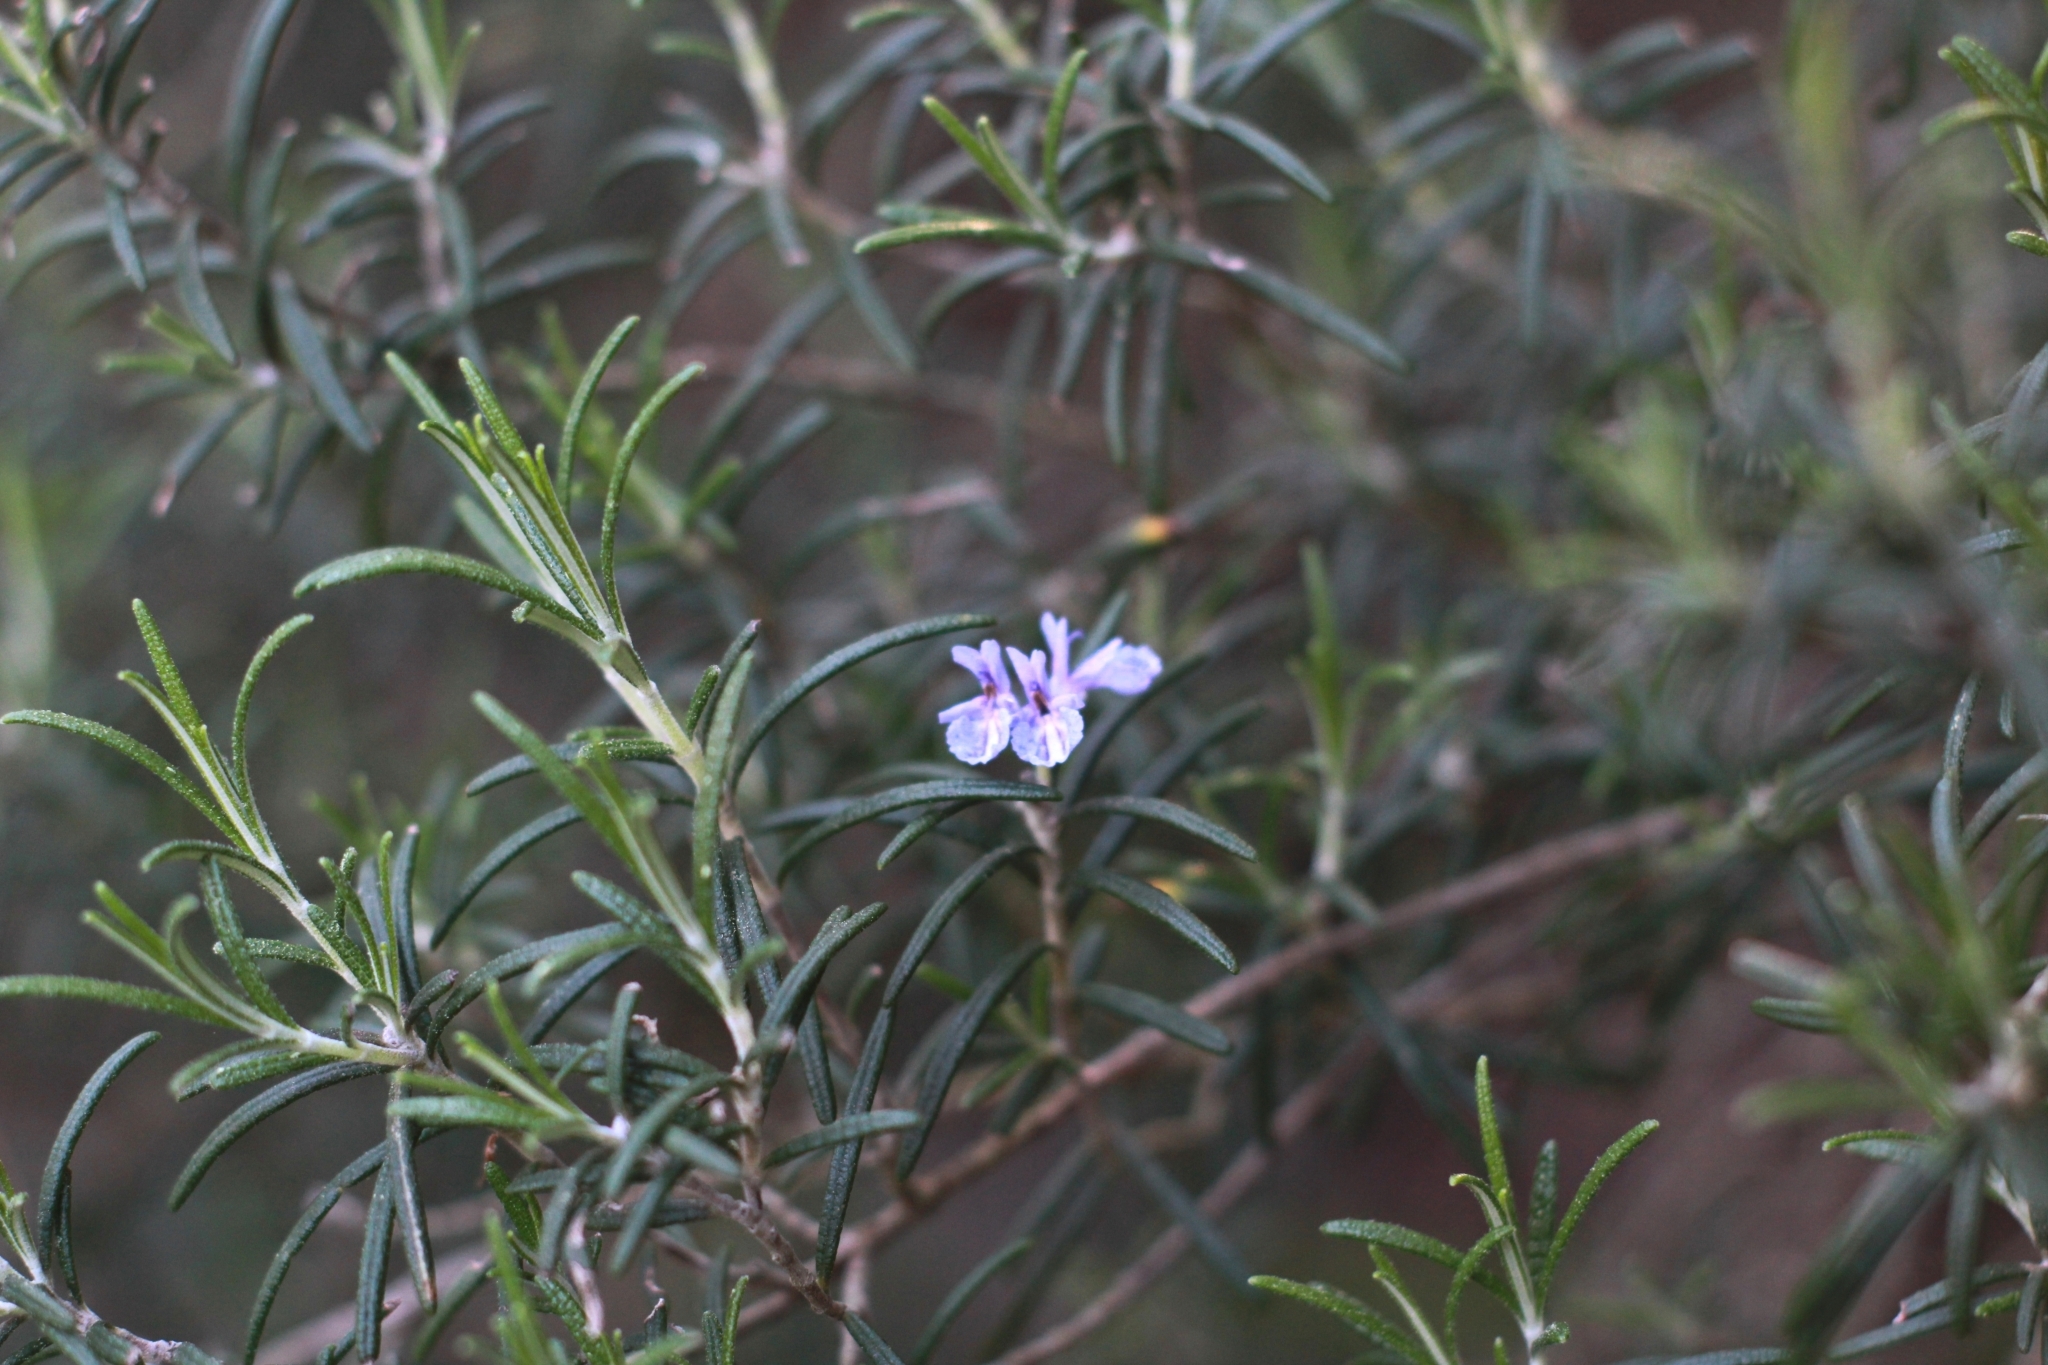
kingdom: Plantae
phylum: Tracheophyta
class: Magnoliopsida
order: Lamiales
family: Lamiaceae
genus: Salvia
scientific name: Salvia rosmarinus
